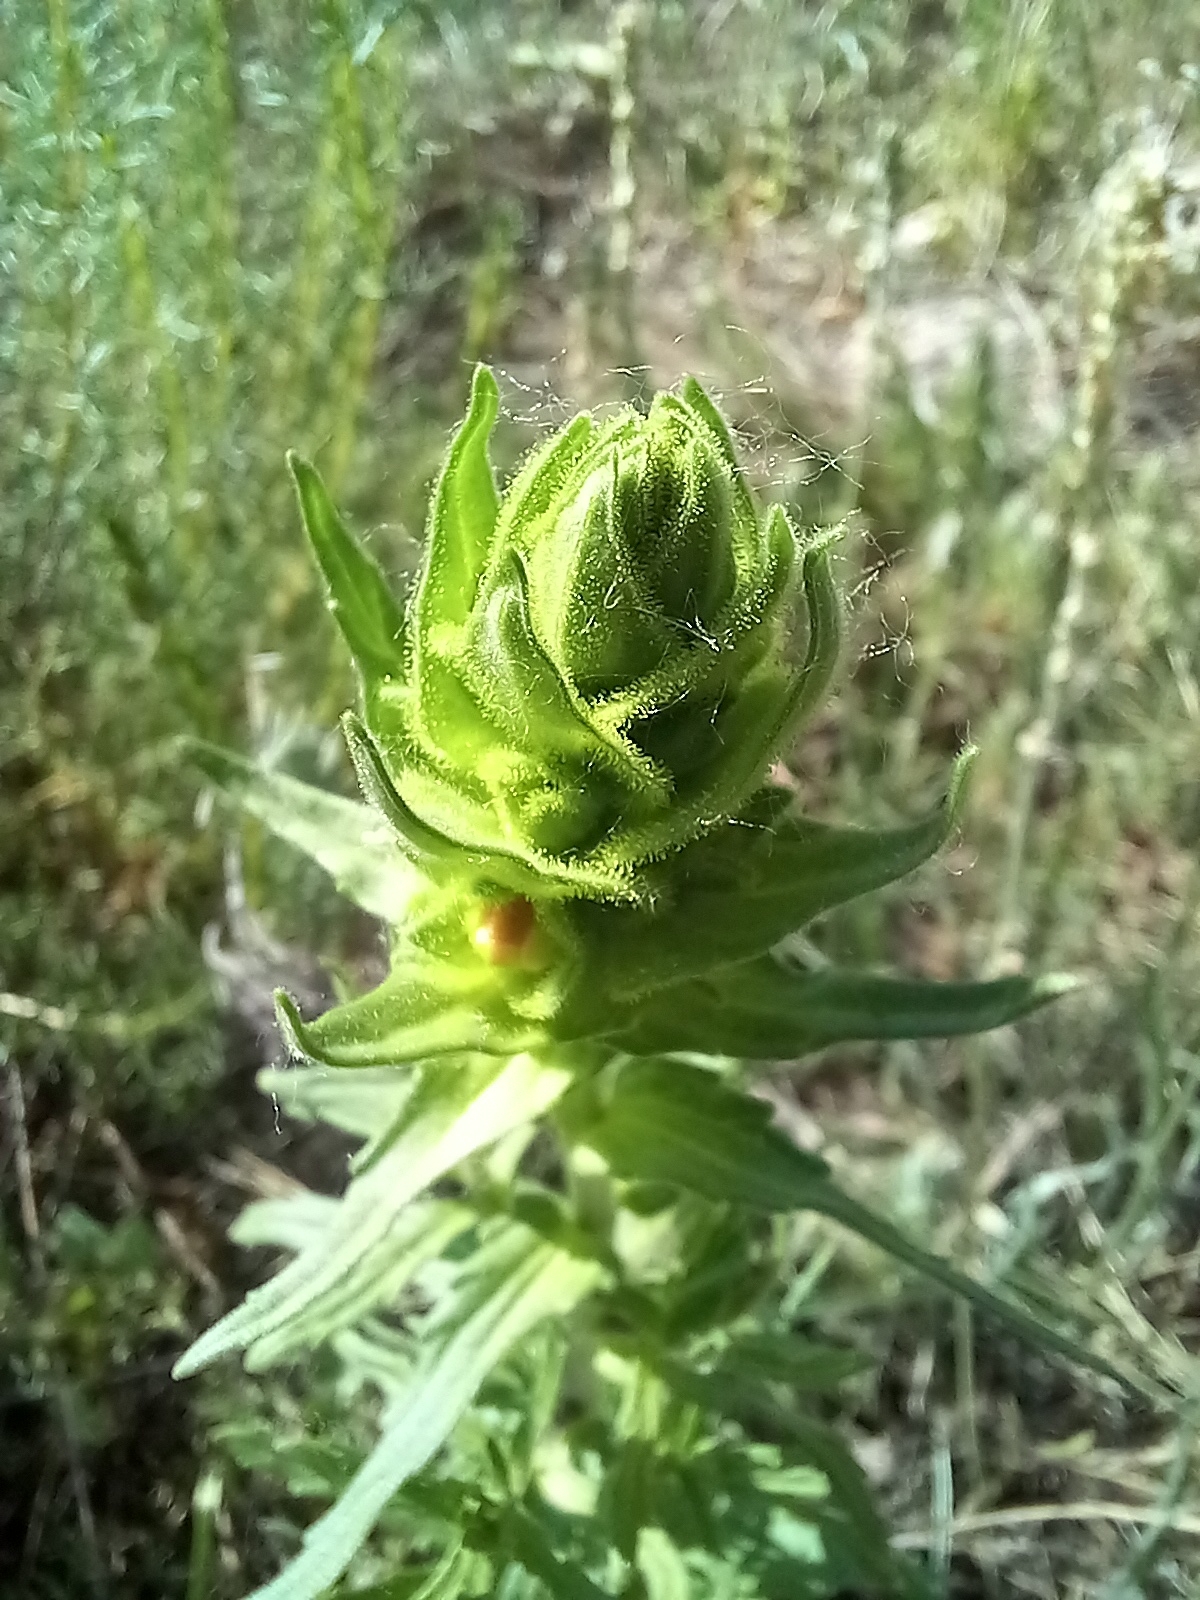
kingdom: Plantae
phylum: Tracheophyta
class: Magnoliopsida
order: Lamiales
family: Orobanchaceae
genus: Bellardia
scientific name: Bellardia trixago
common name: Mediterranean lineseed
